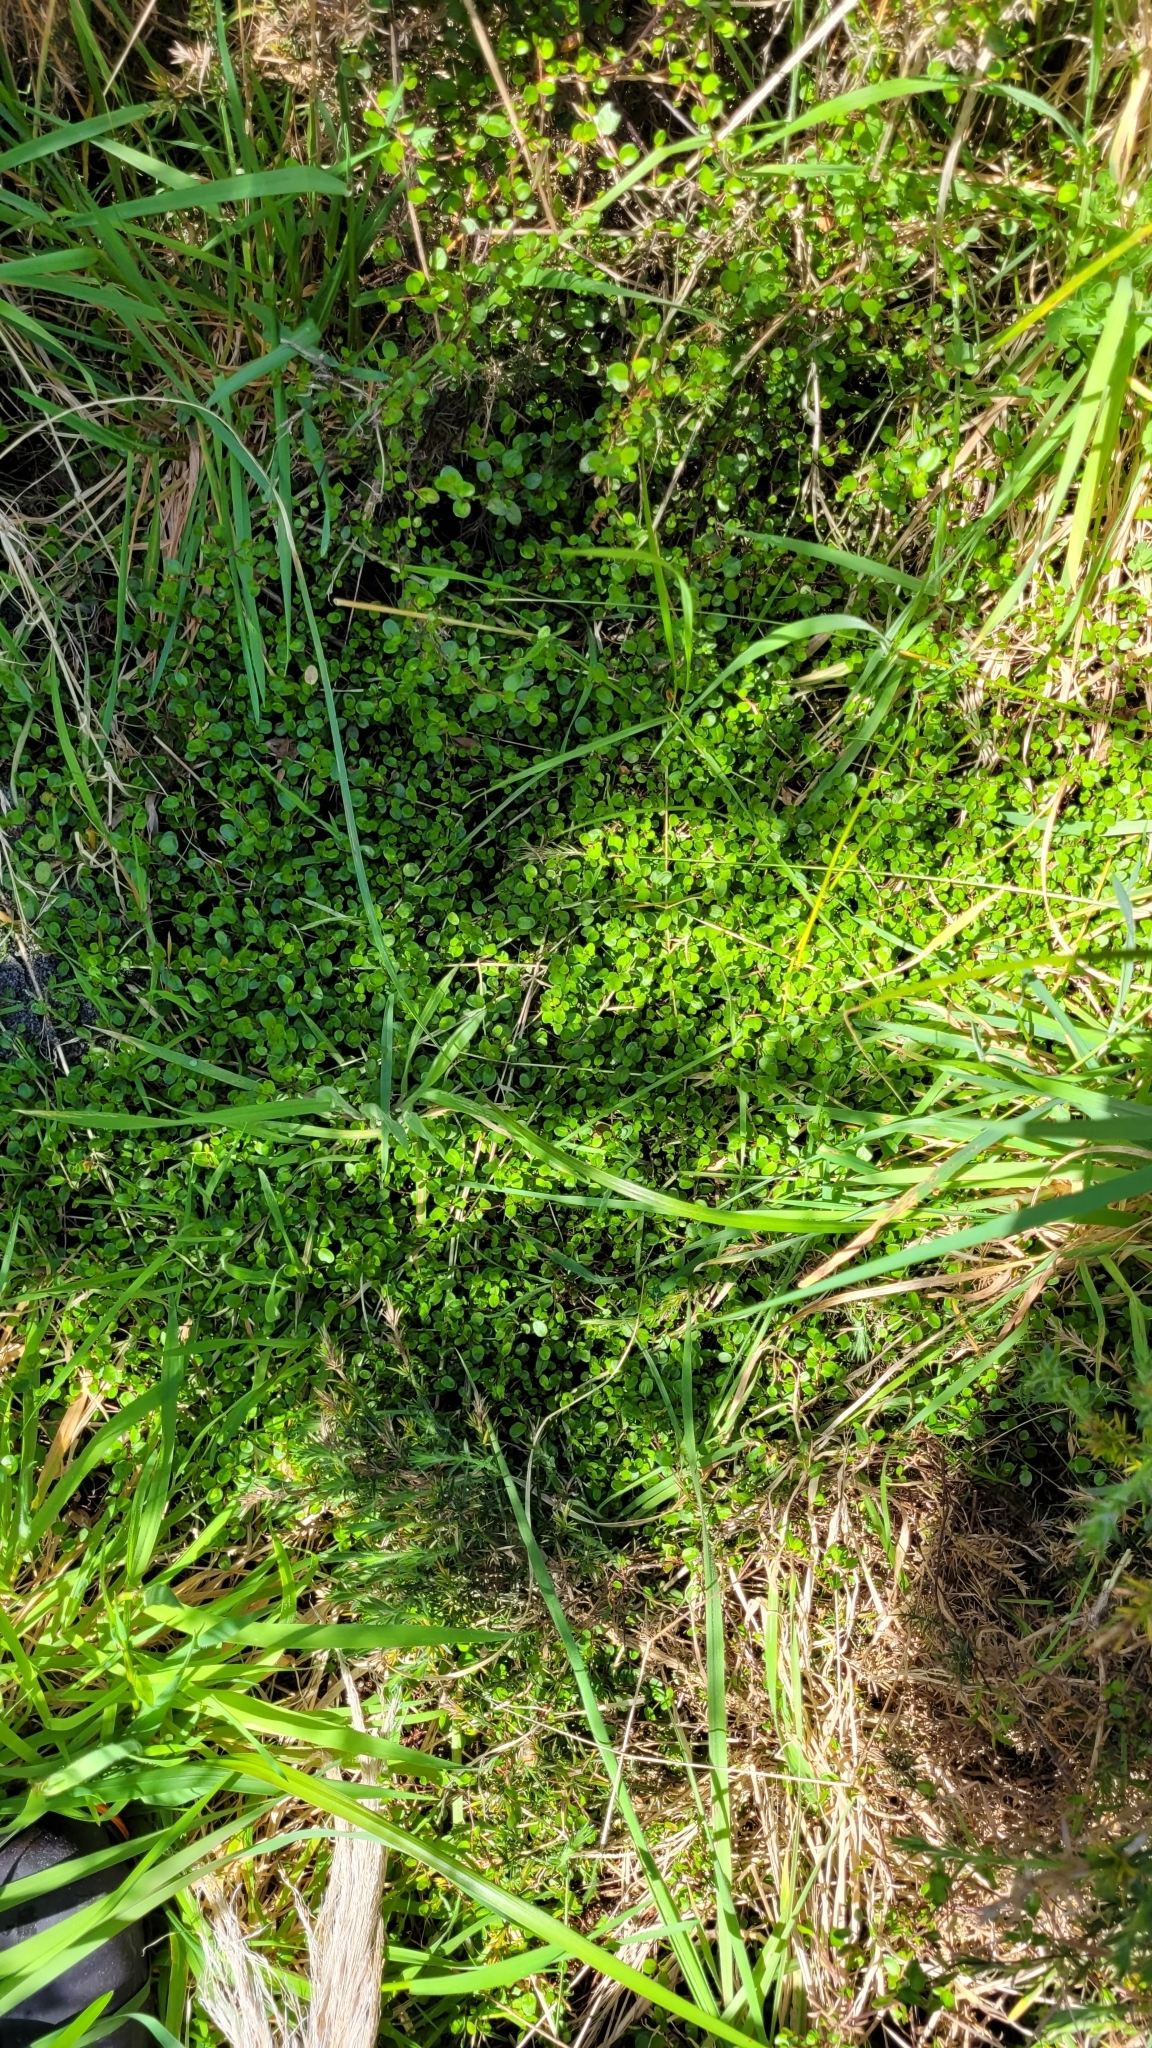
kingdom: Plantae
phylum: Tracheophyta
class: Magnoliopsida
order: Caryophyllales
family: Polygonaceae
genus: Muehlenbeckia
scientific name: Muehlenbeckia complexa
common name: Wireplant
